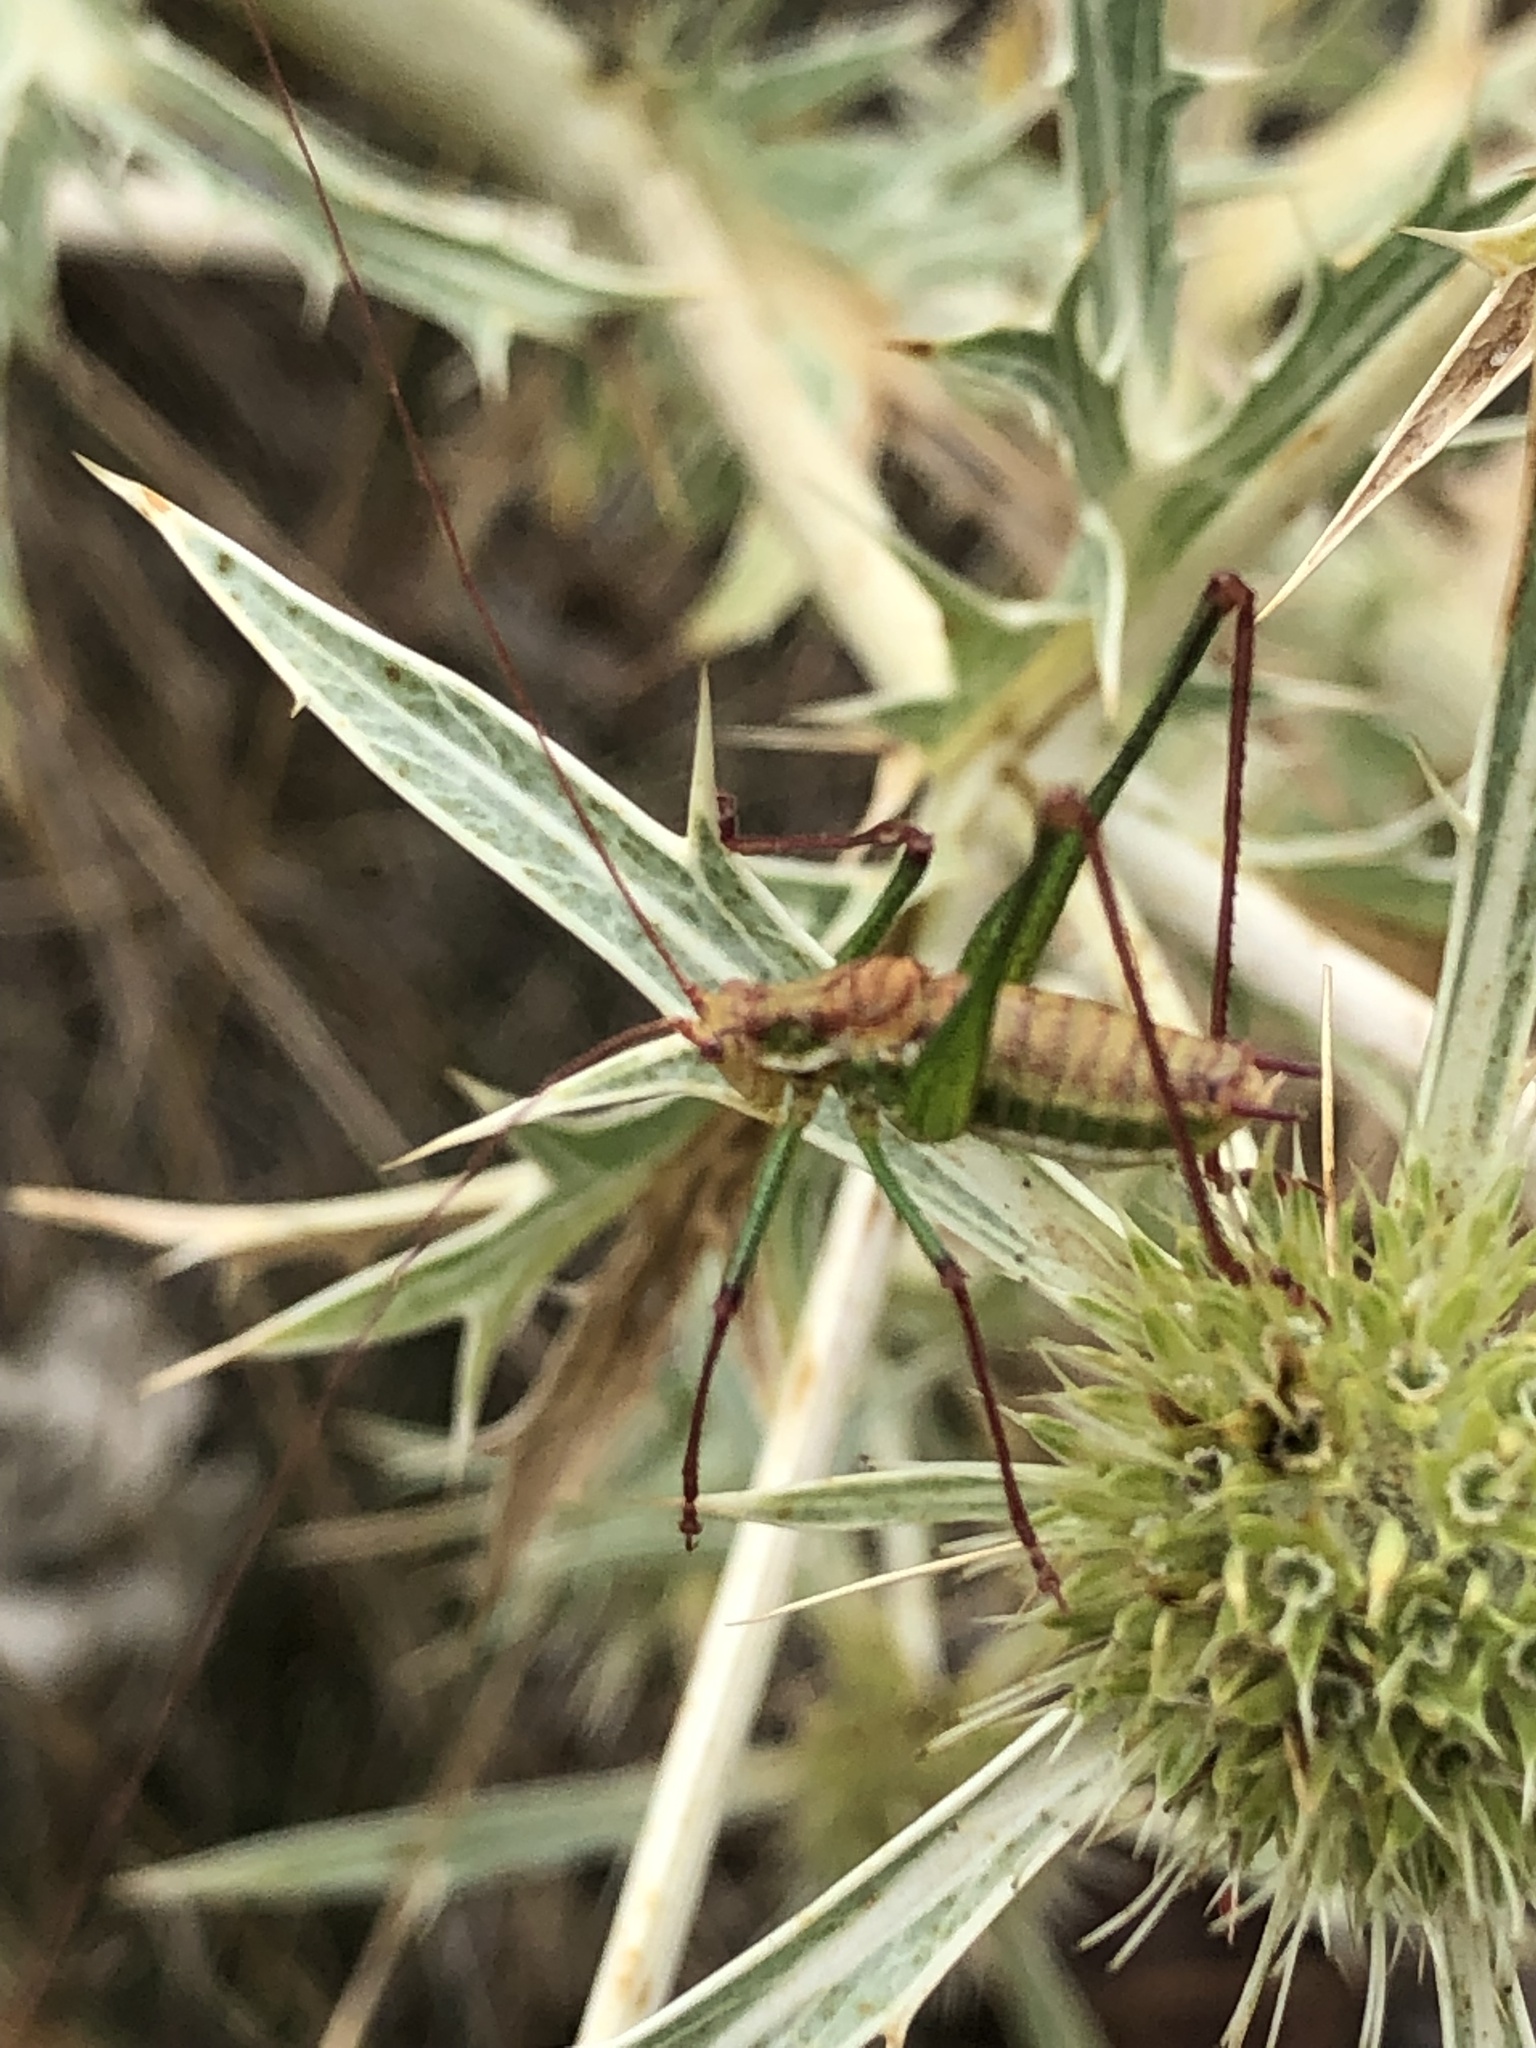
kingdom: Animalia
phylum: Arthropoda
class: Insecta
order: Orthoptera
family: Tettigoniidae
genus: Leptophyes
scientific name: Leptophyes albovittata
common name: Striped bush-cricket
